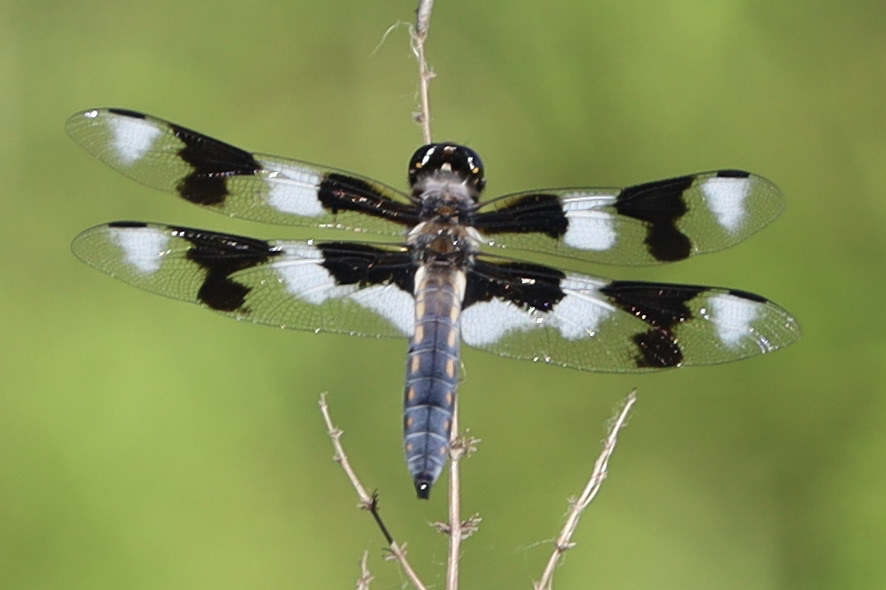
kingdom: Animalia
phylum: Arthropoda
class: Insecta
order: Odonata
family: Libellulidae
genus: Libellula
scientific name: Libellula forensis
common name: Eight-spotted skimmer
